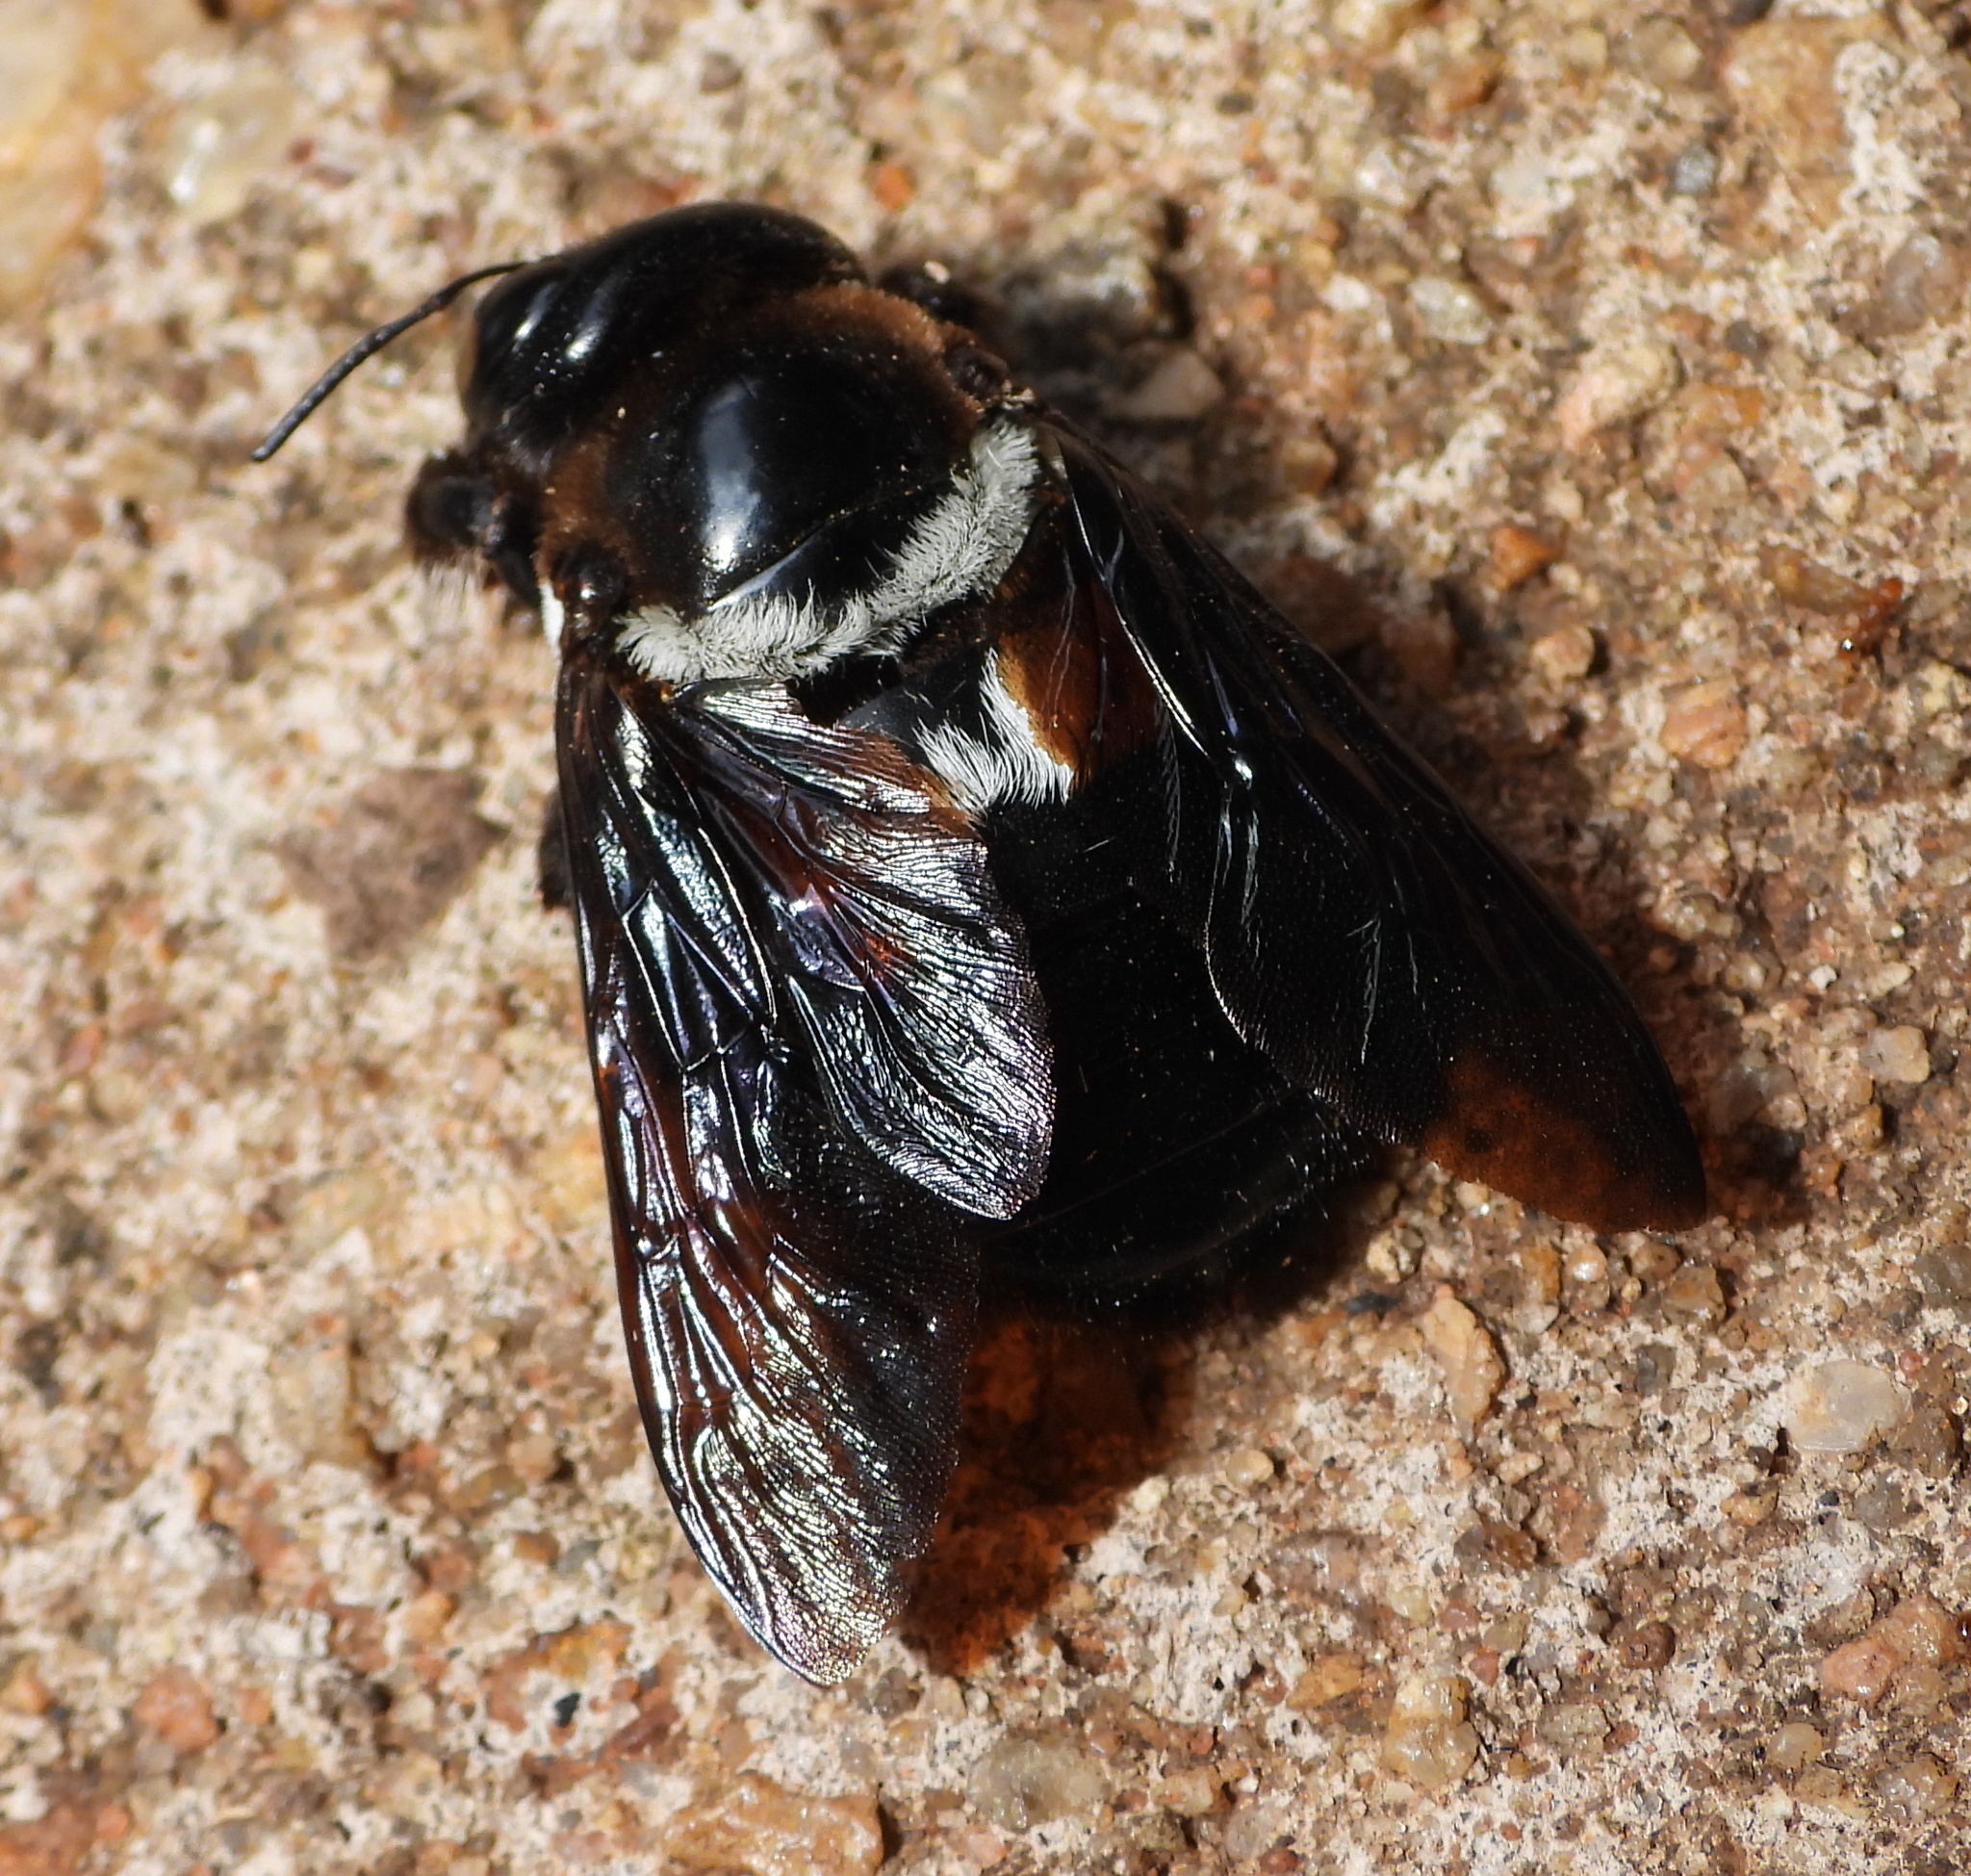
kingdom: Animalia
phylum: Arthropoda
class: Insecta
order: Hymenoptera
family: Apidae
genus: Xylocopa
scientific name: Xylocopa inconstans
